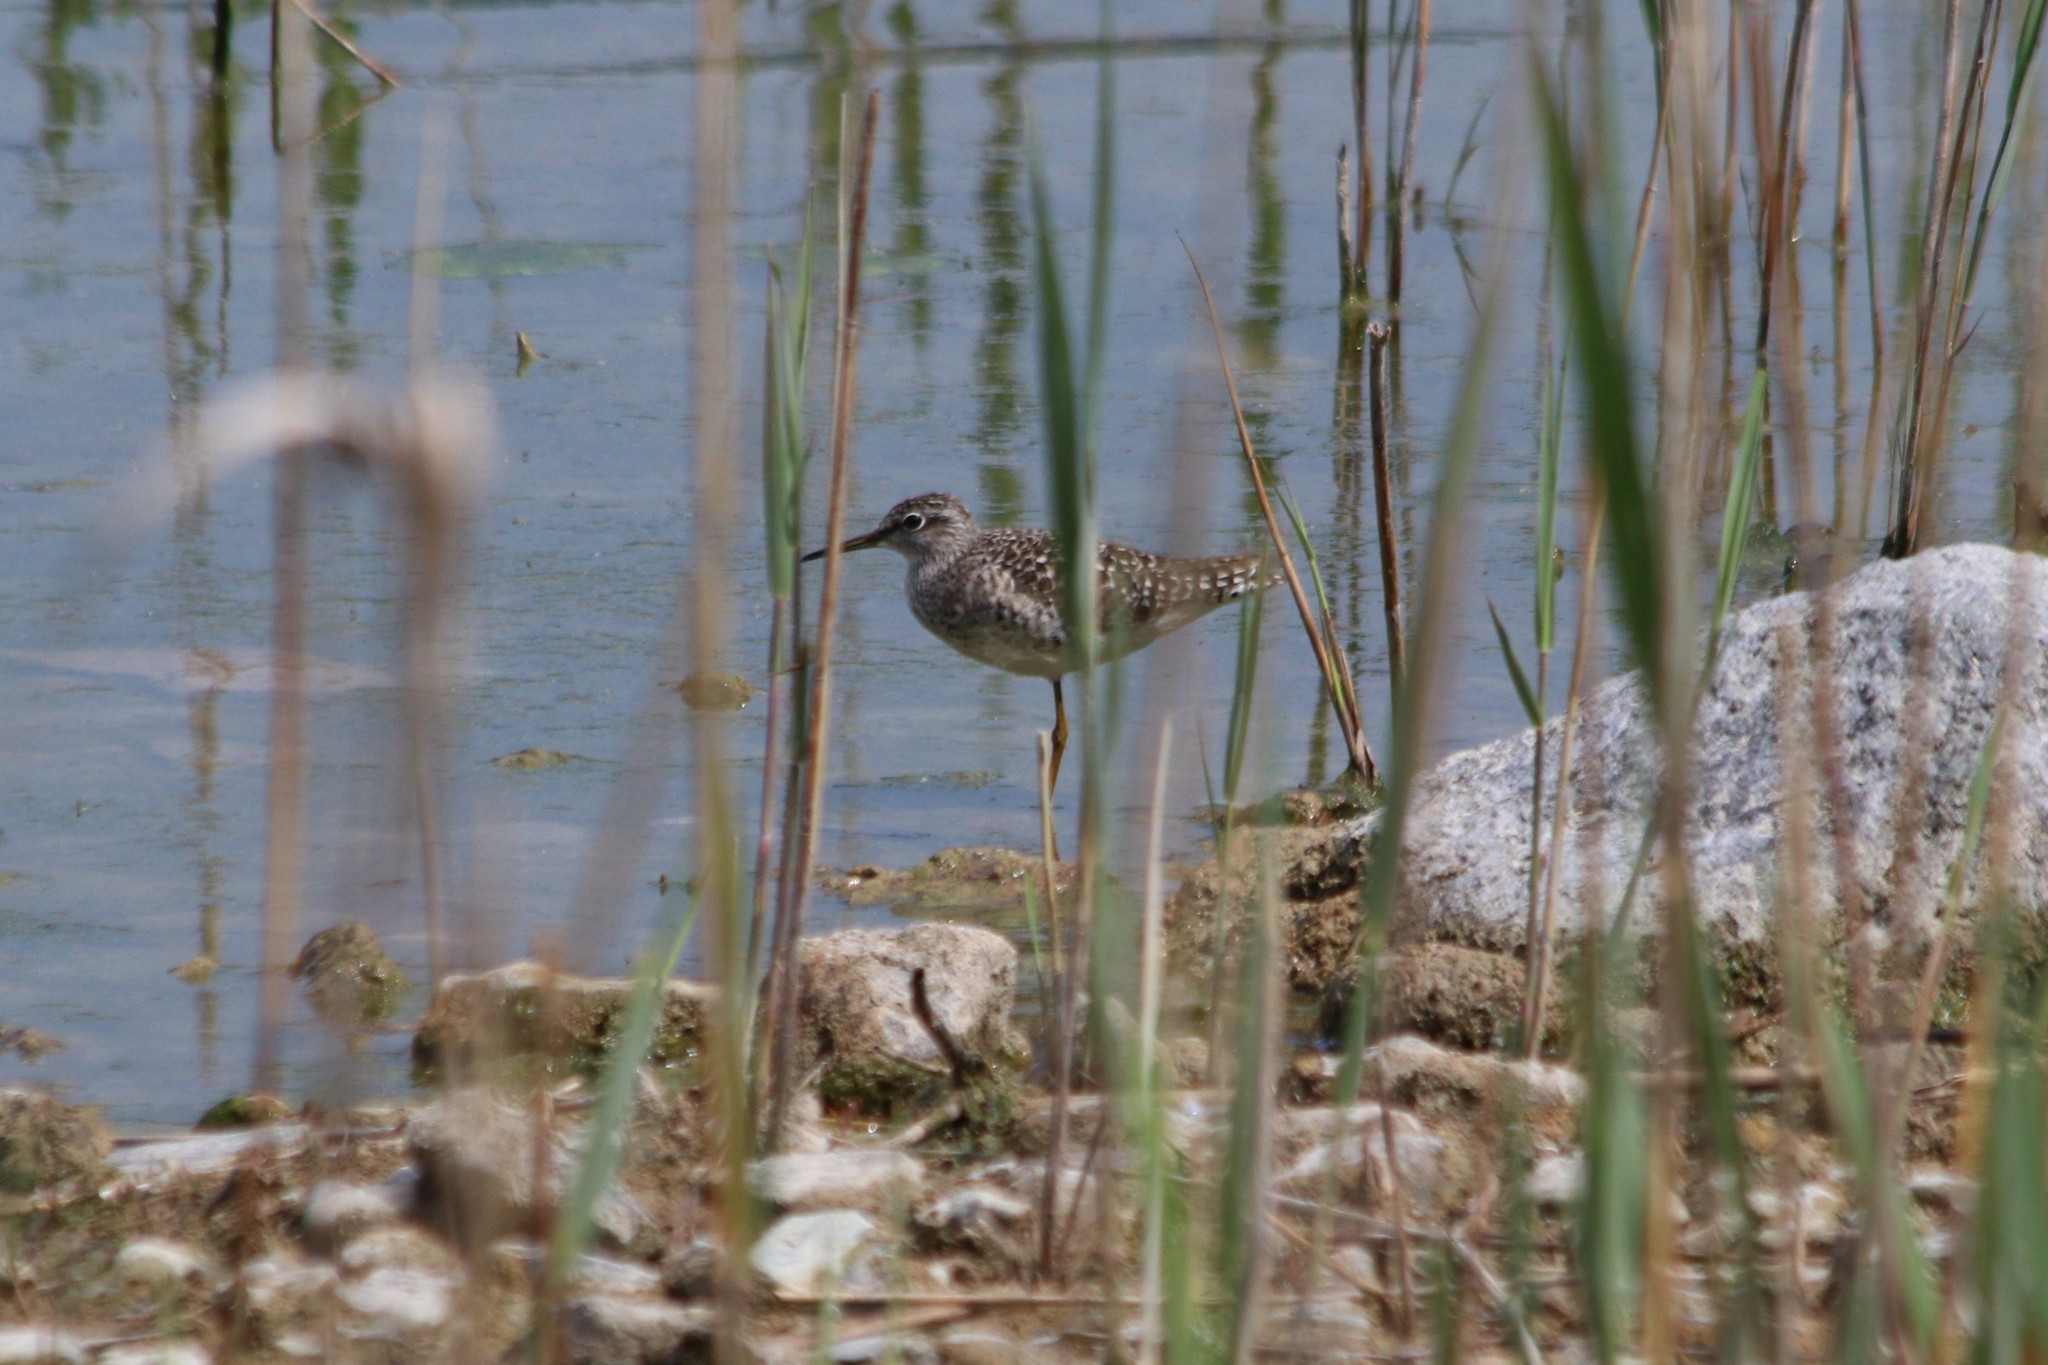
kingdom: Animalia
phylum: Chordata
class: Aves
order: Charadriiformes
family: Scolopacidae
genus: Tringa
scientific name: Tringa glareola
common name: Wood sandpiper
